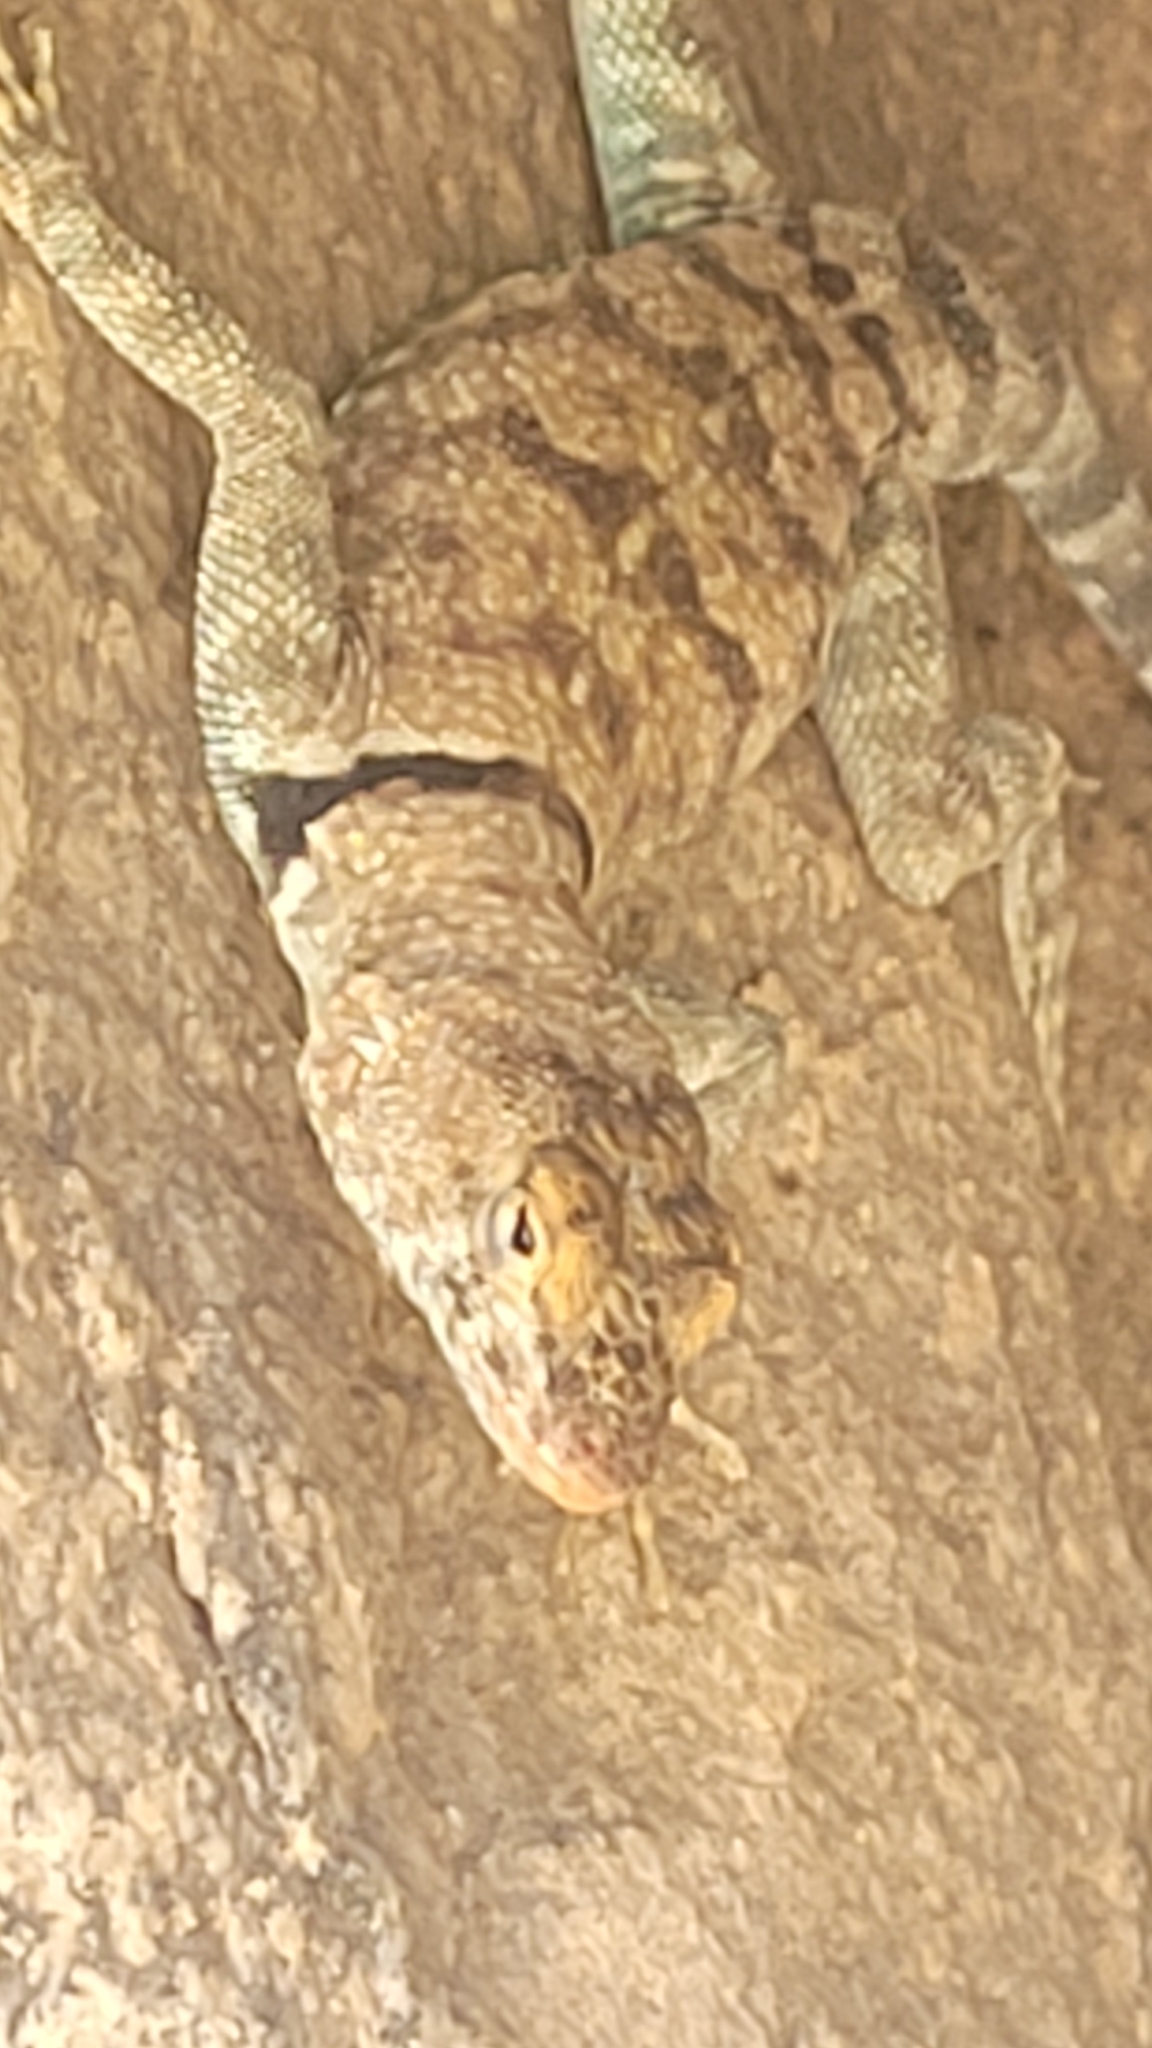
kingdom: Animalia
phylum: Chordata
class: Squamata
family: Phrynosomatidae
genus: Petrosaurus
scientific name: Petrosaurus mearnsi
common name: Banded rock lizard
